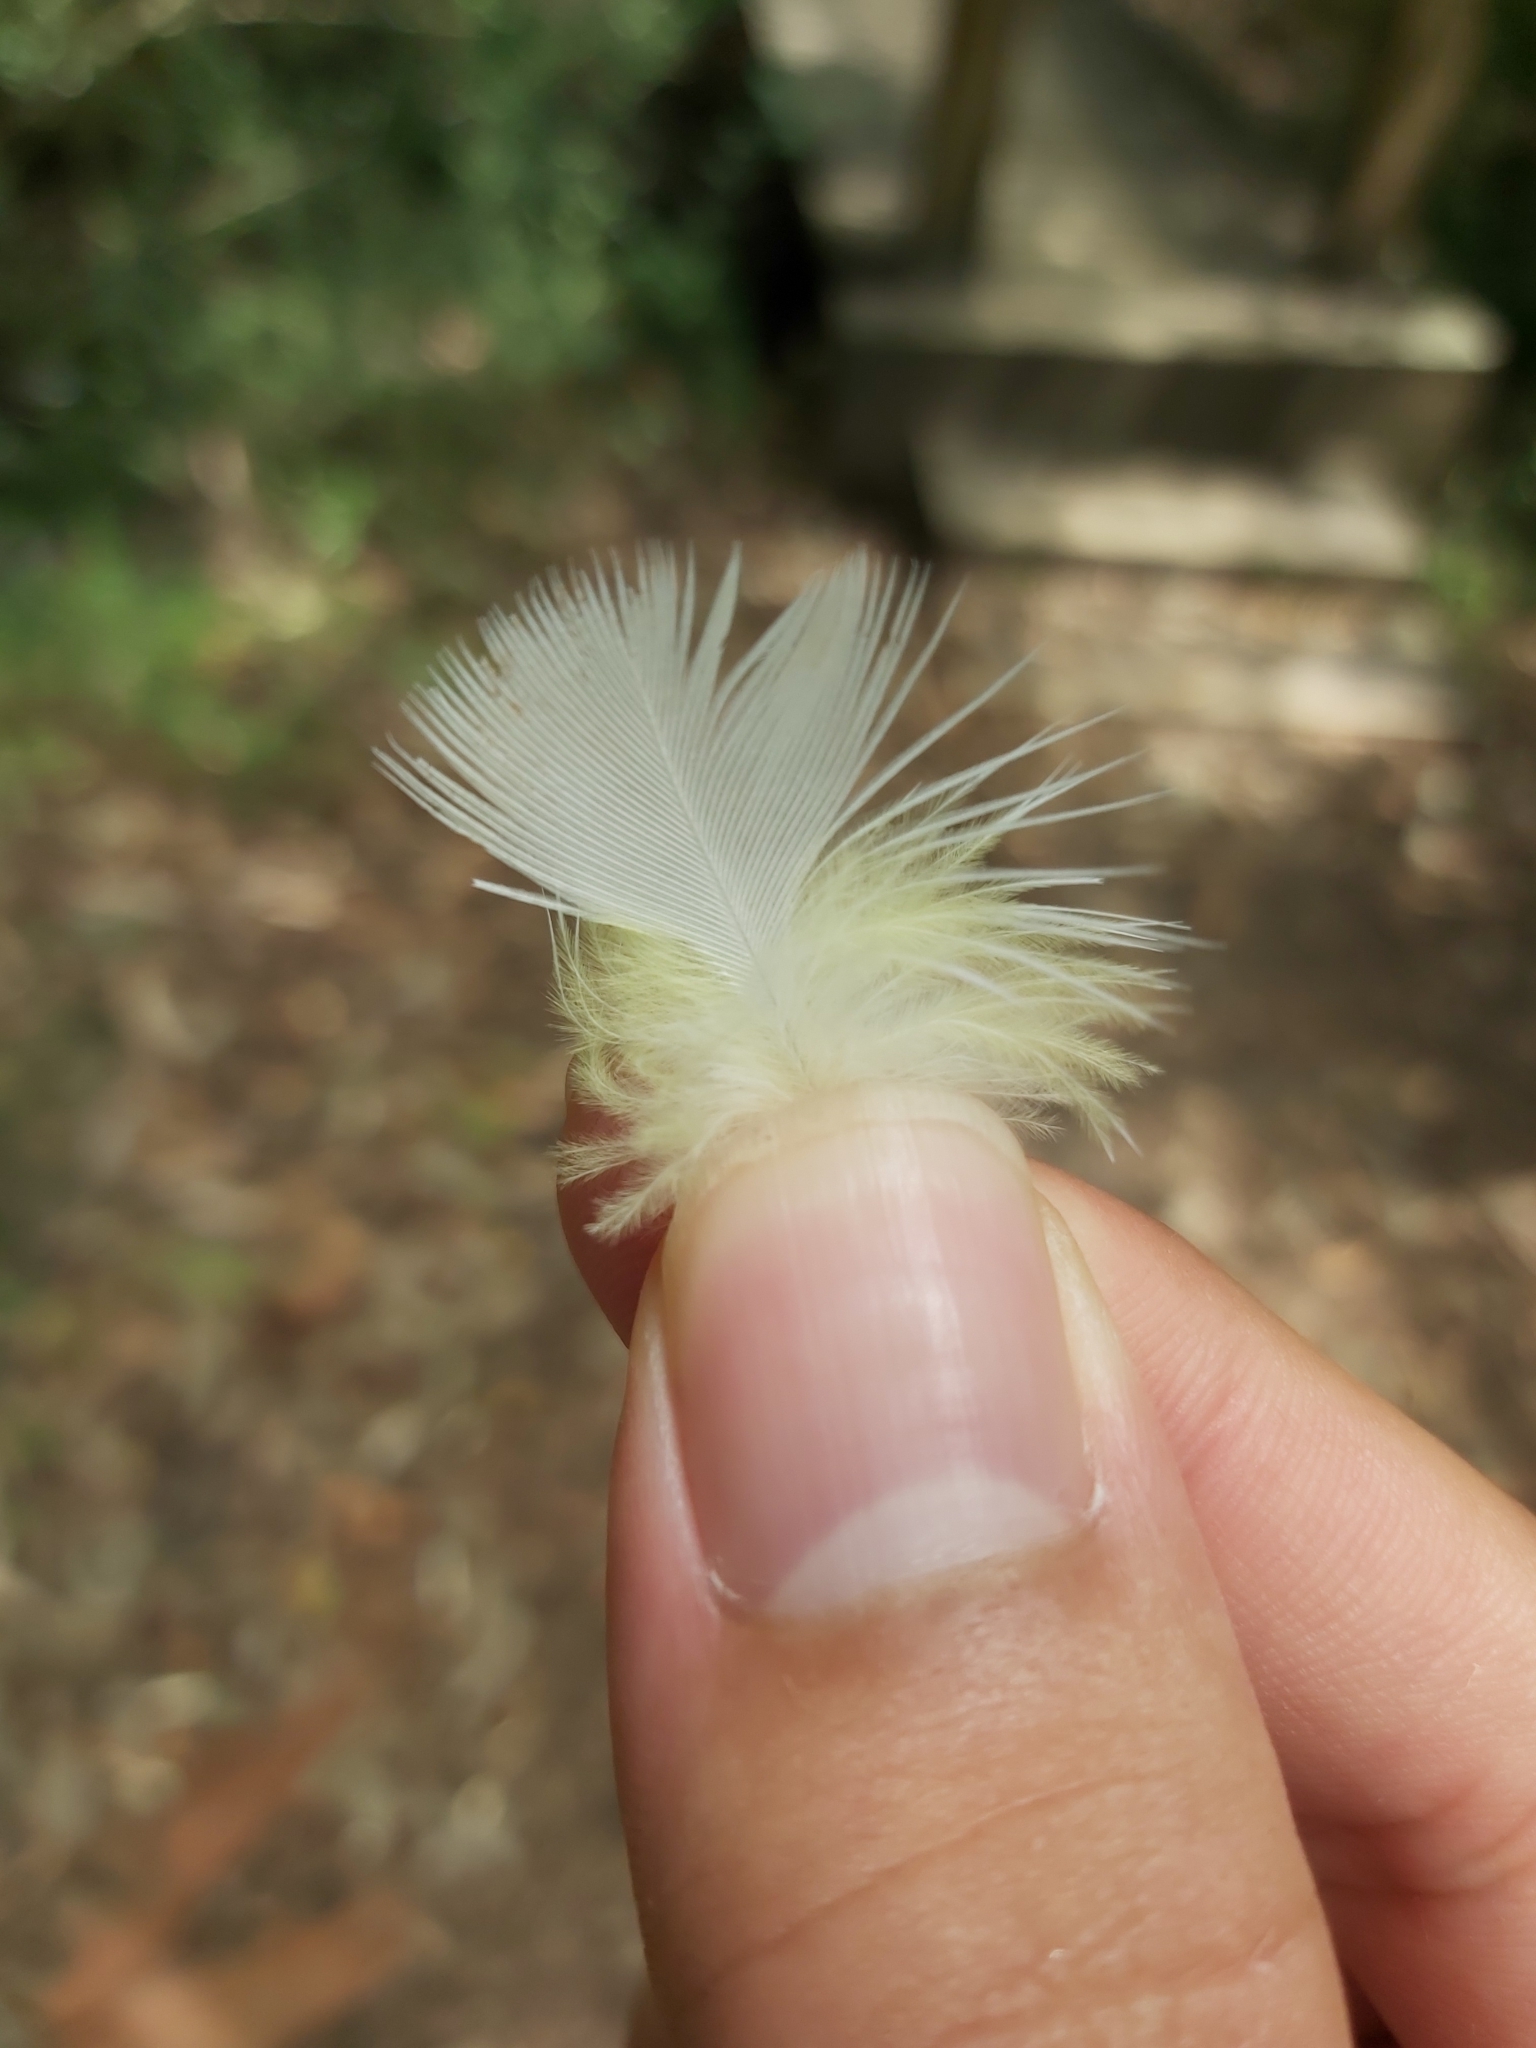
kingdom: Animalia
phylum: Chordata
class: Aves
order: Psittaciformes
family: Psittacidae
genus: Cacatua
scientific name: Cacatua galerita
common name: Sulphur-crested cockatoo
